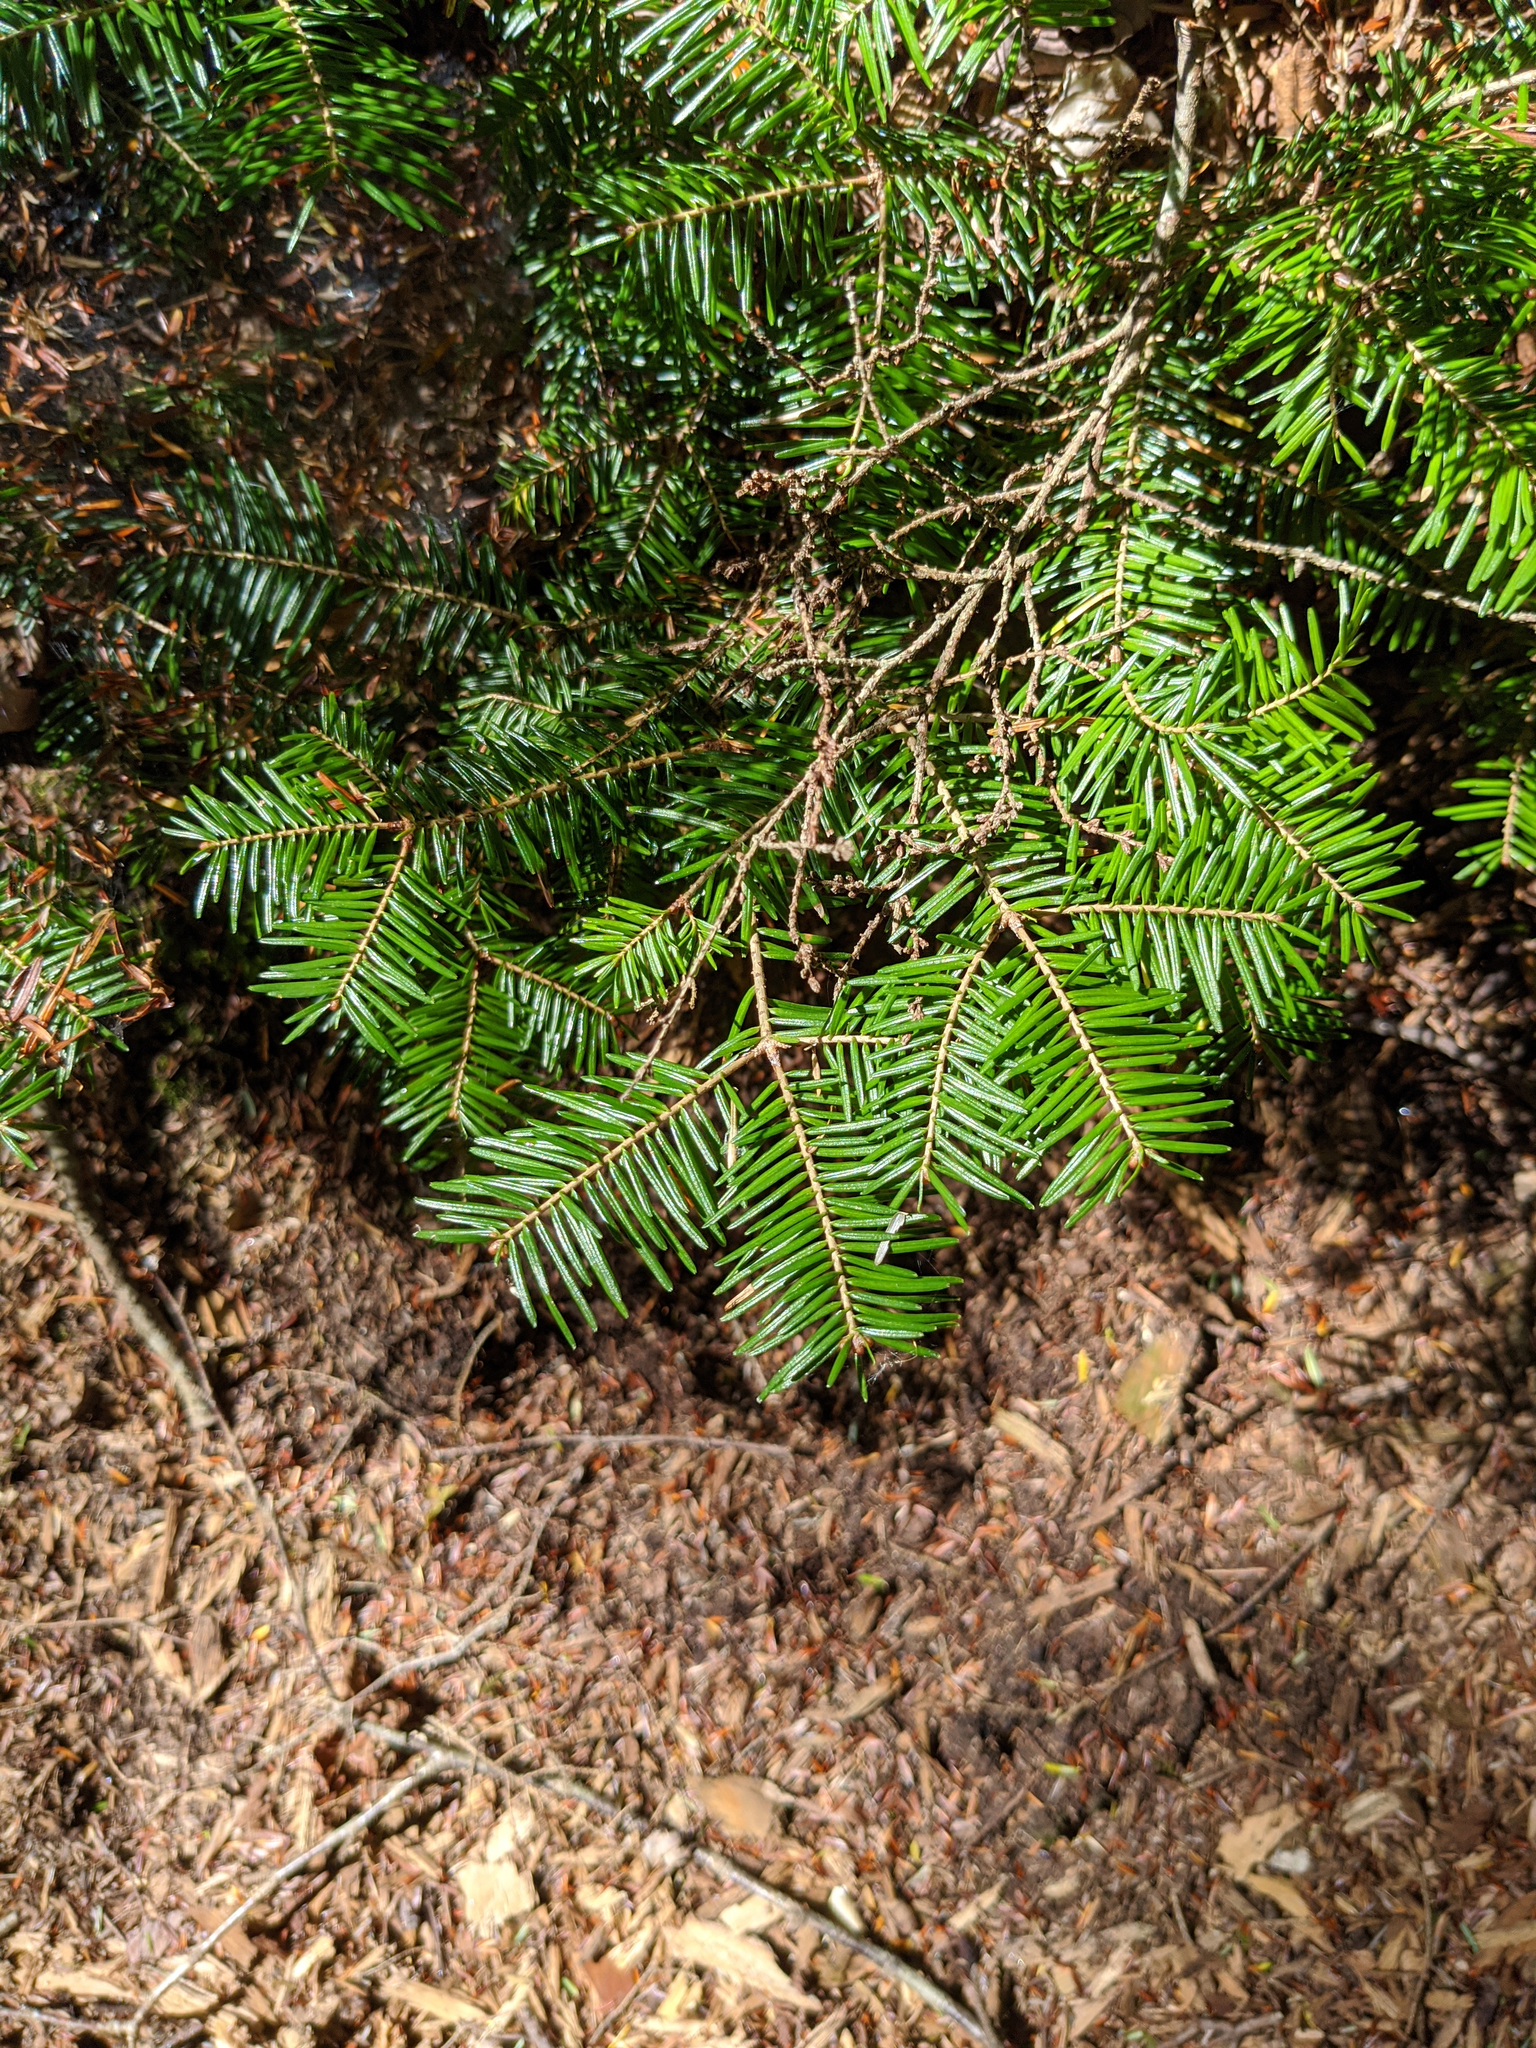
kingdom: Plantae
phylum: Tracheophyta
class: Pinopsida
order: Pinales
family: Pinaceae
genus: Abies
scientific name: Abies balsamea
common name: Balsam fir
